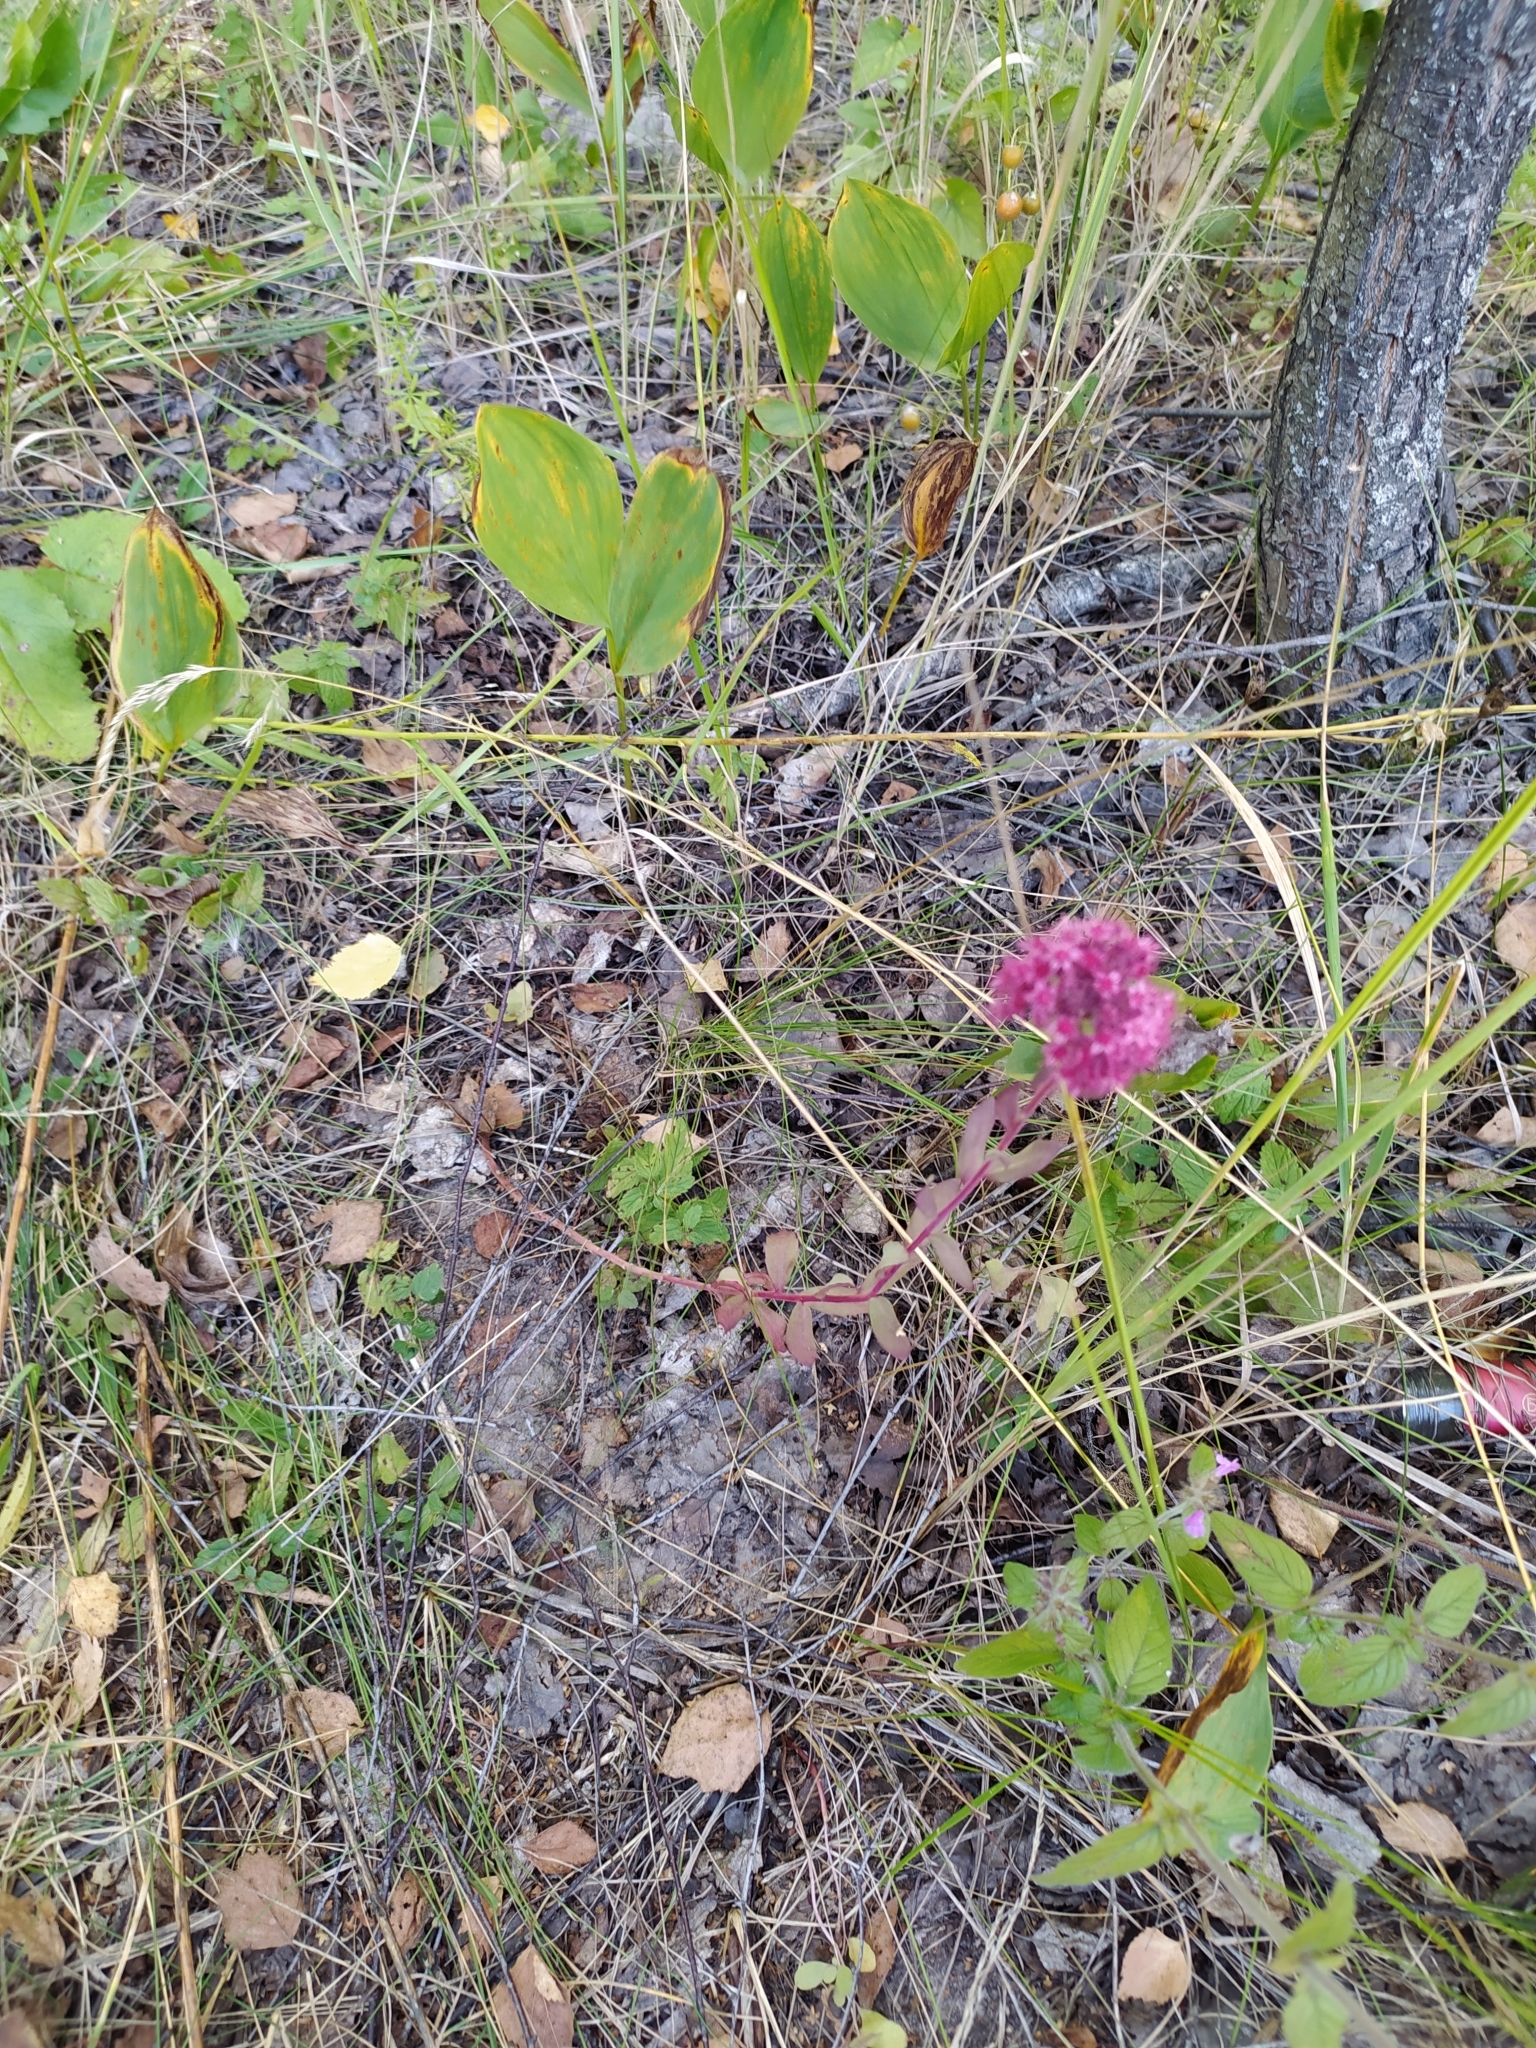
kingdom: Plantae
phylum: Tracheophyta
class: Magnoliopsida
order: Saxifragales
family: Crassulaceae
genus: Hylotelephium
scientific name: Hylotelephium telephium
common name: Live-forever
